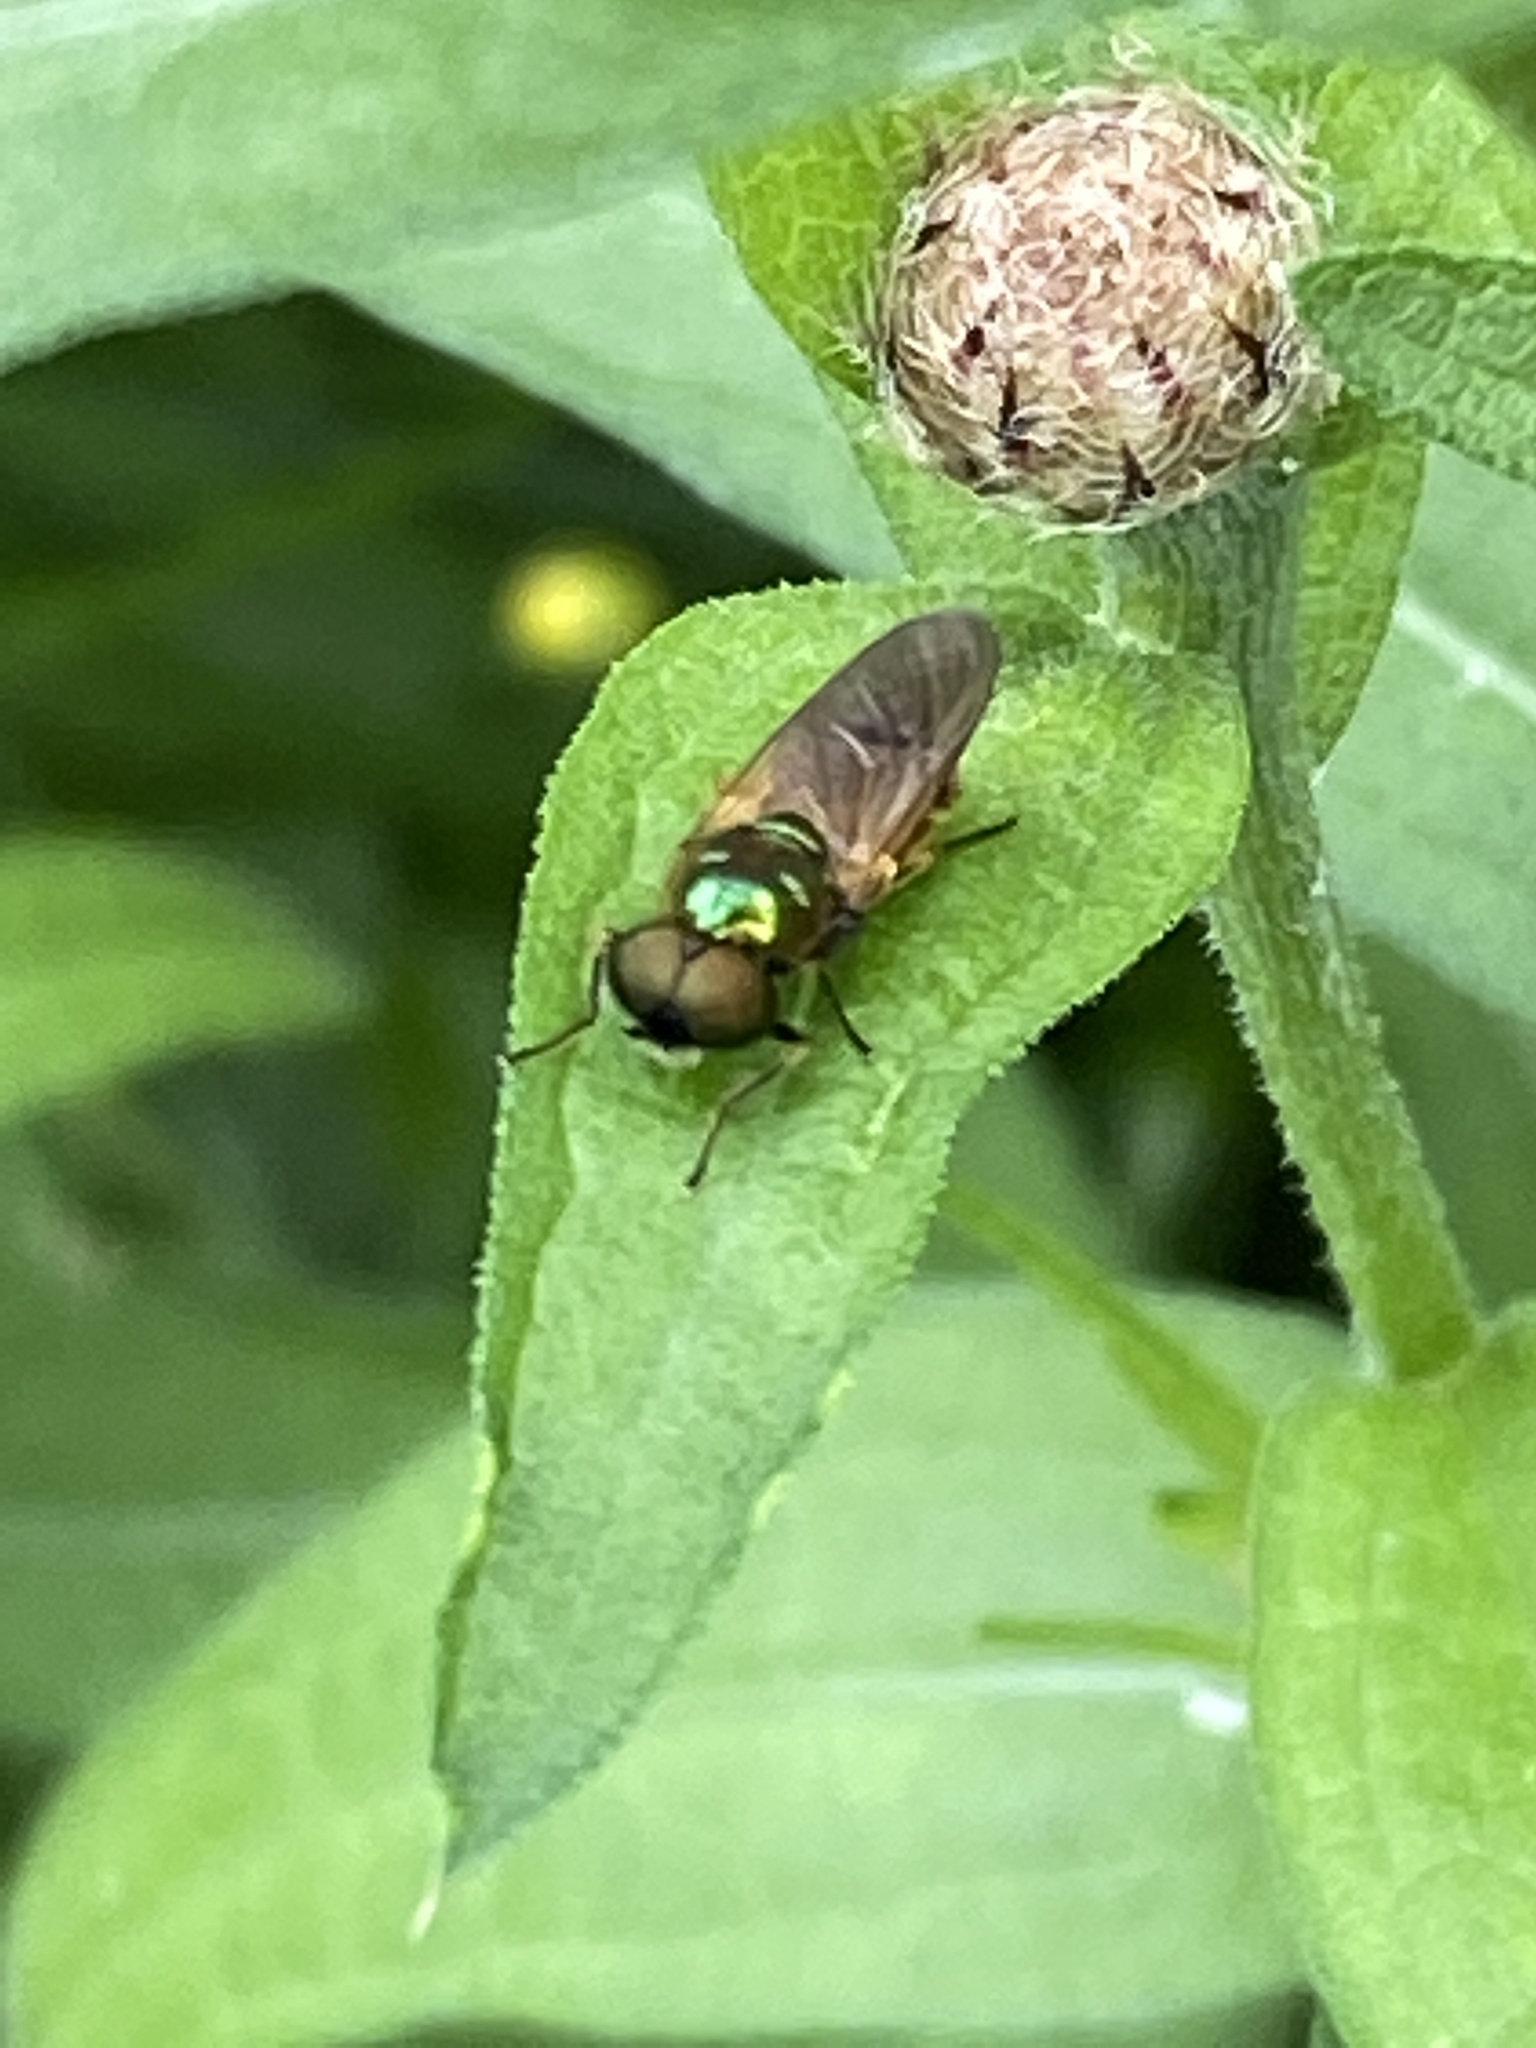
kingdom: Animalia
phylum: Arthropoda
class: Insecta
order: Diptera
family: Stratiomyidae
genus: Chloromyia
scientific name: Chloromyia formosa
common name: Soldier fly
